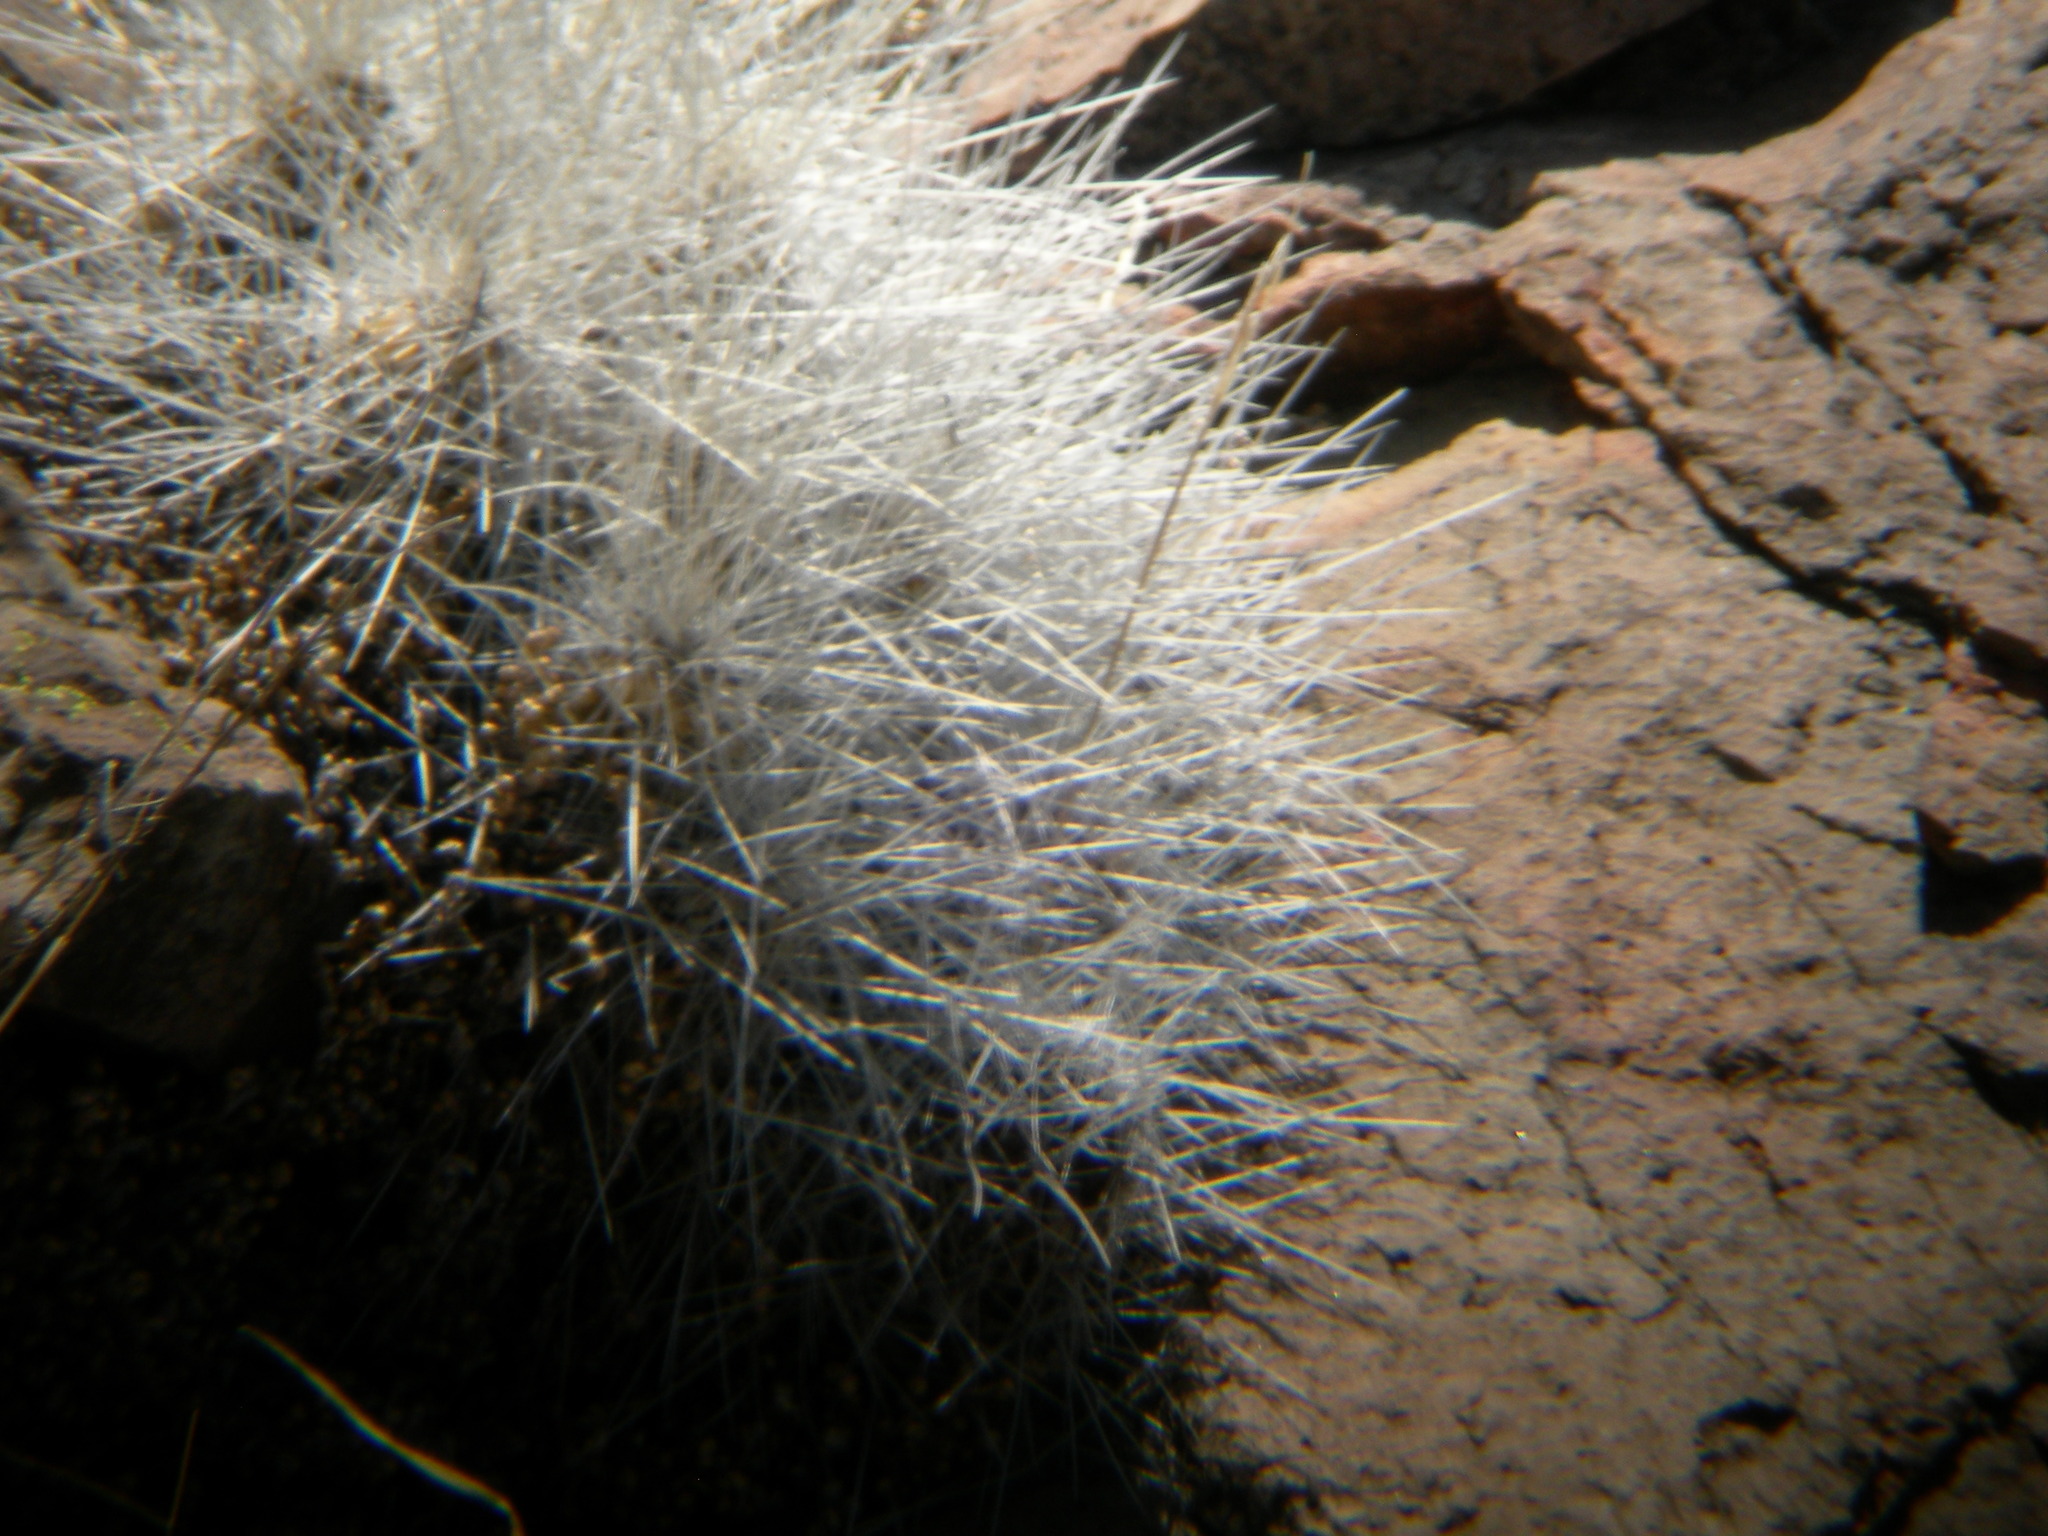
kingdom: Plantae
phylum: Tracheophyta
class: Magnoliopsida
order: Caryophyllales
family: Cactaceae
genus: Echinocereus
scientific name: Echinocereus stramineus
